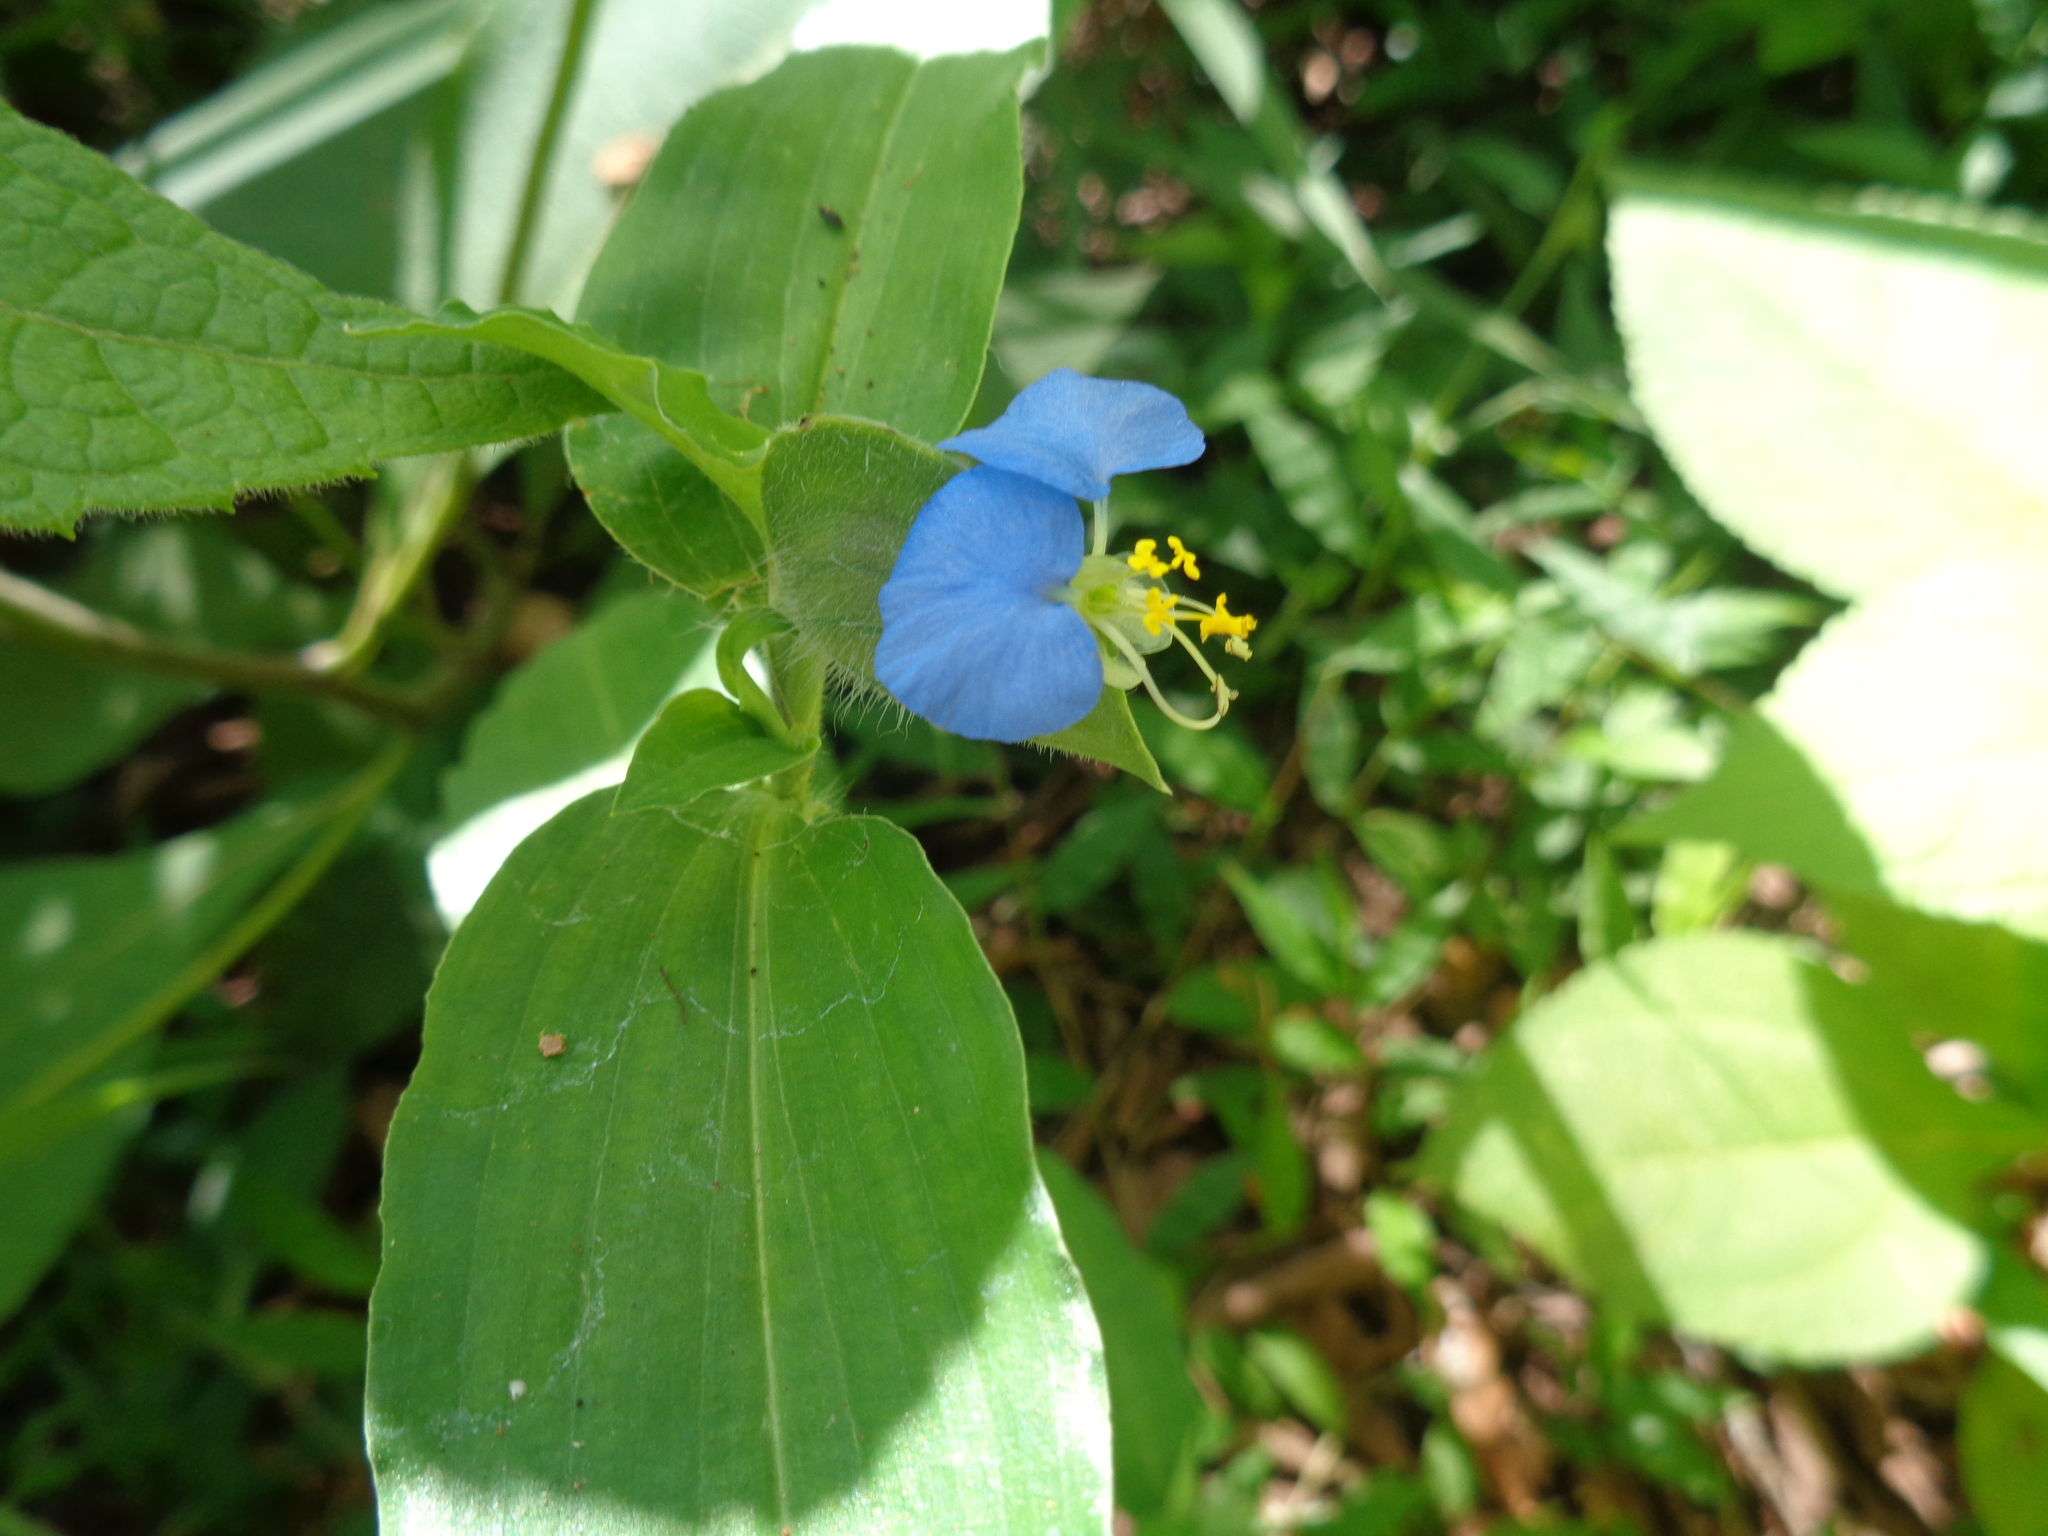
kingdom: Plantae
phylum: Tracheophyta
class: Liliopsida
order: Commelinales
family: Commelinaceae
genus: Commelina
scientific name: Commelina erecta
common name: Blousel blommetjie
